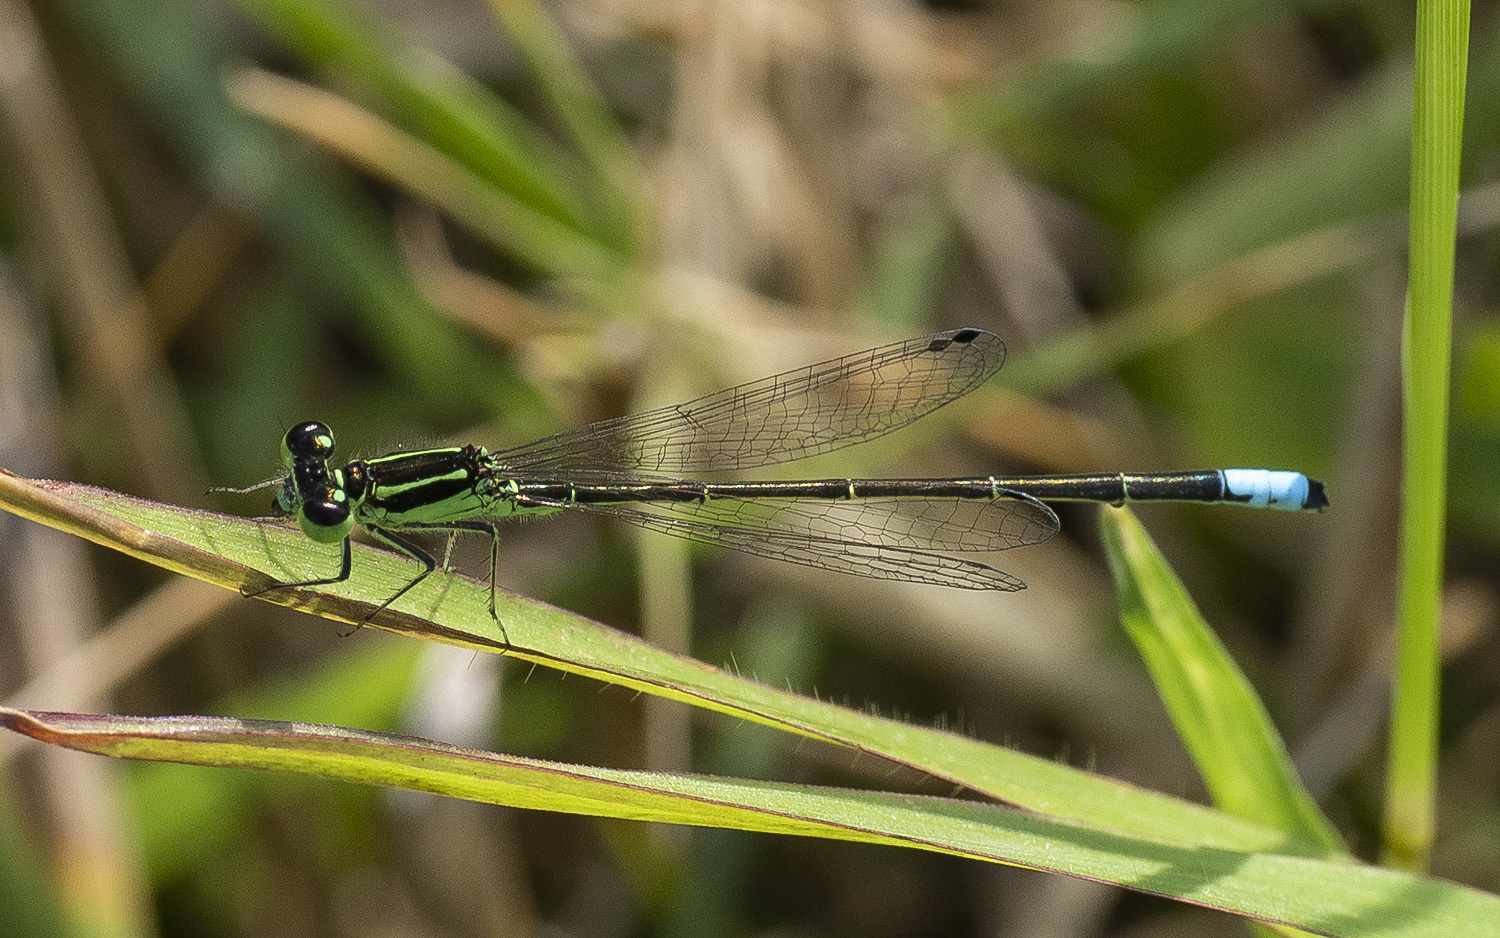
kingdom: Animalia
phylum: Arthropoda
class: Insecta
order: Odonata
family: Coenagrionidae
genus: Ischnura
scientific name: Ischnura verticalis
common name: Eastern forktail
